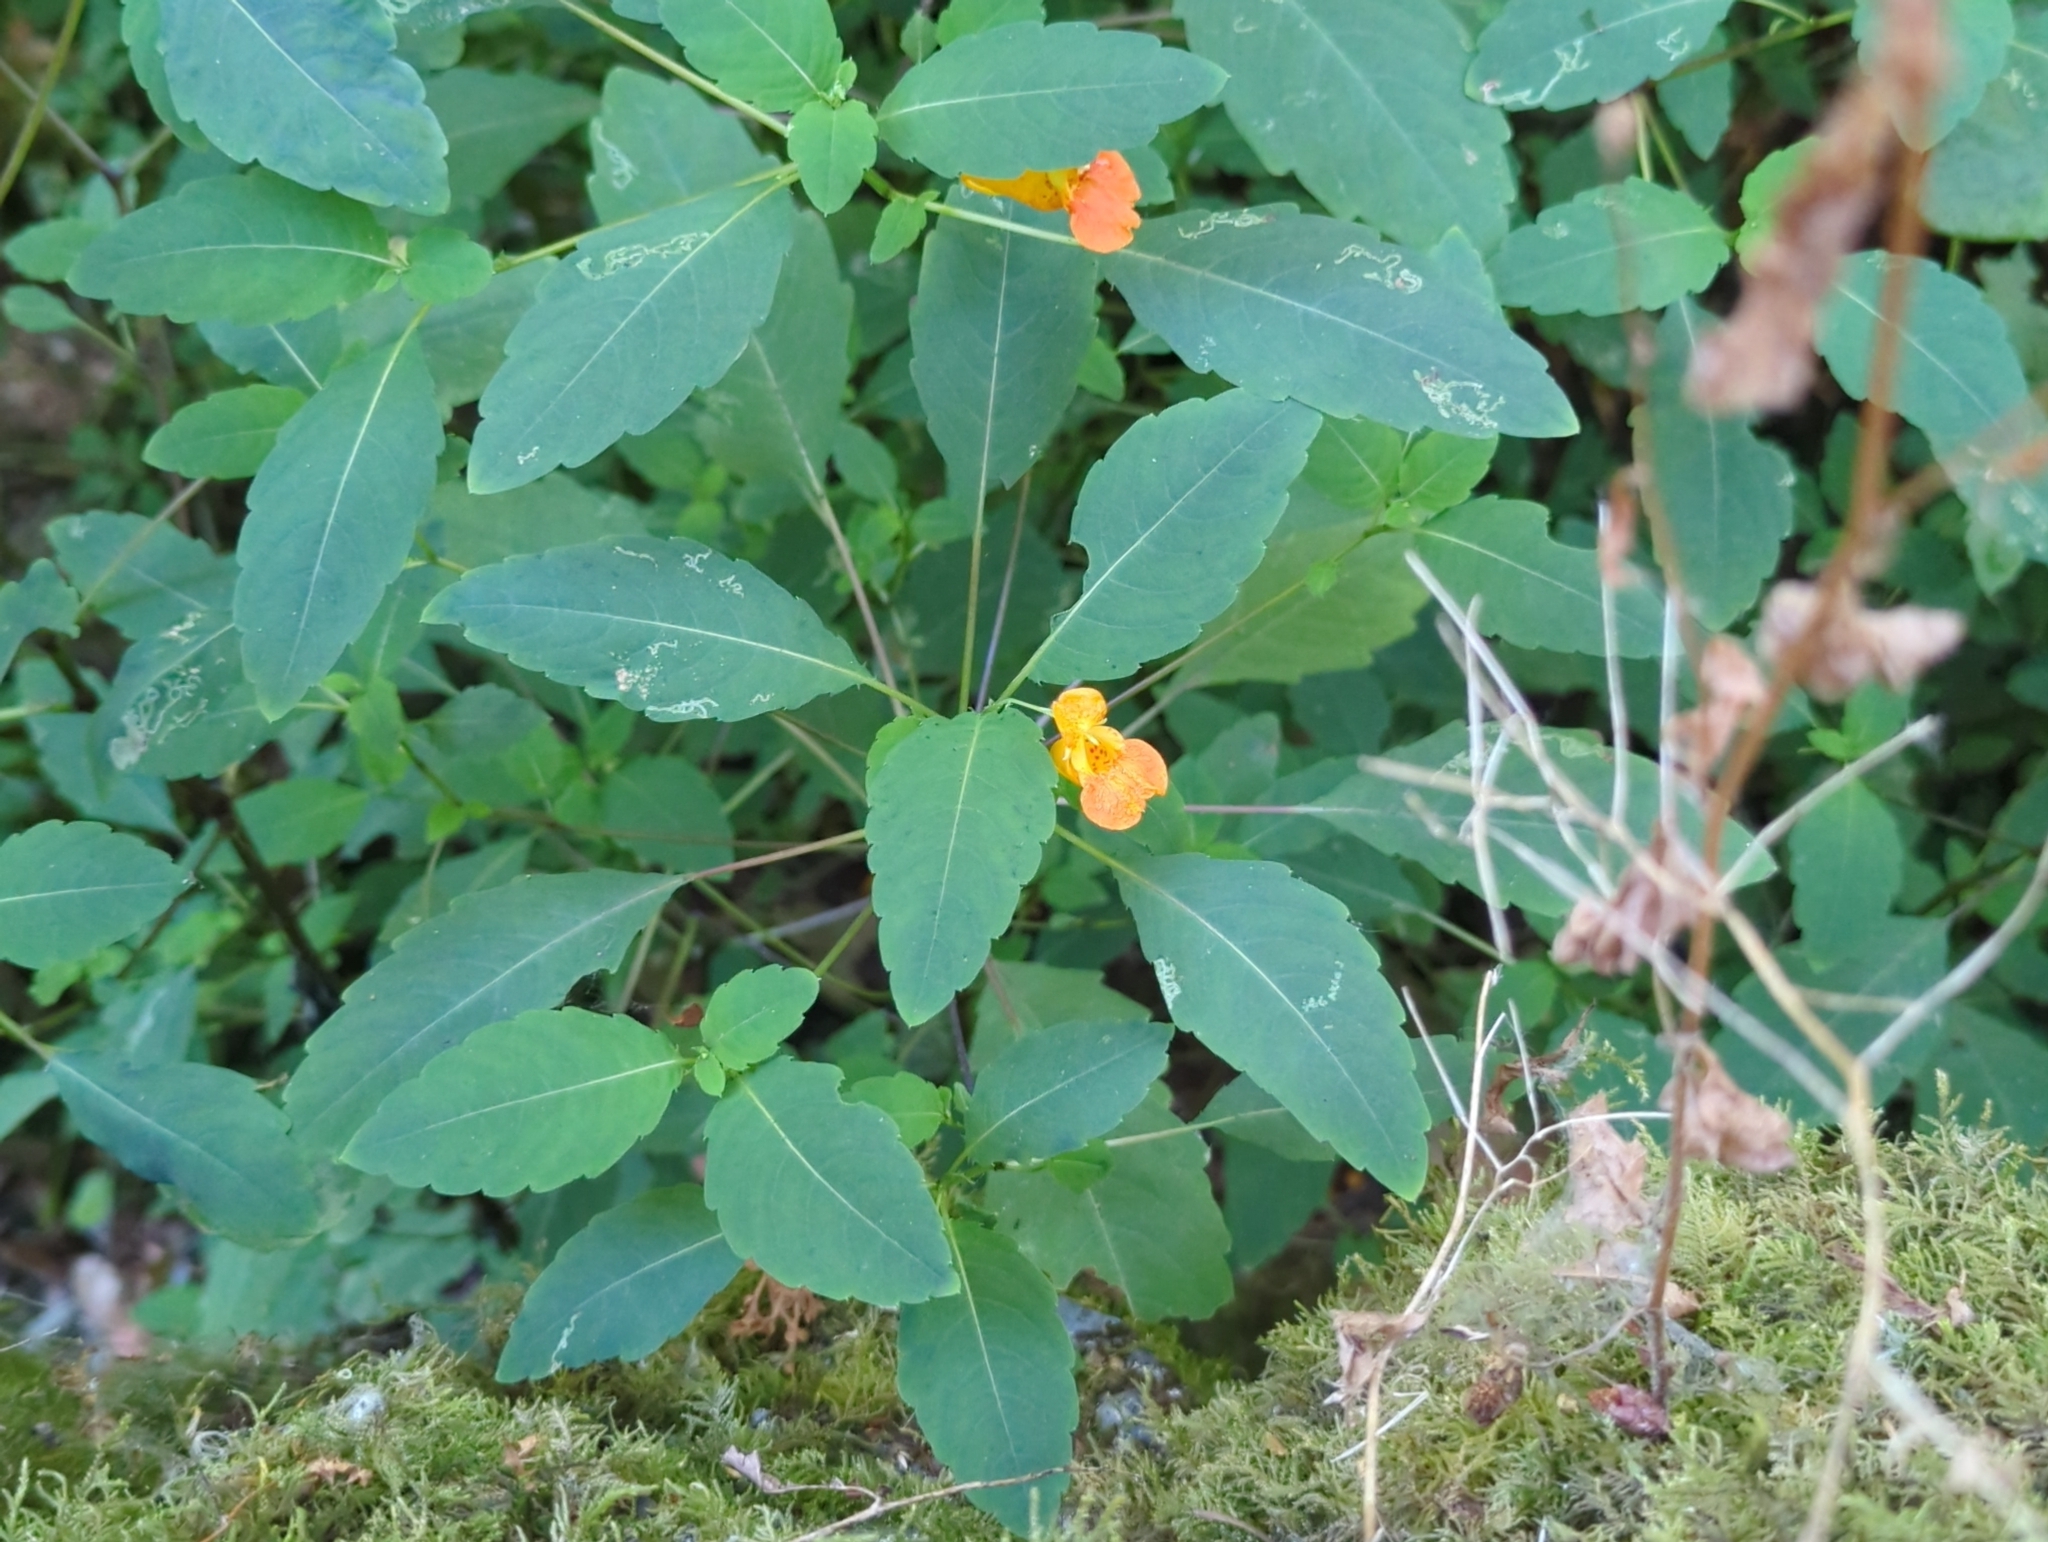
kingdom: Plantae
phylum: Tracheophyta
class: Magnoliopsida
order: Ericales
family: Balsaminaceae
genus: Impatiens
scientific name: Impatiens capensis
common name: Orange balsam
